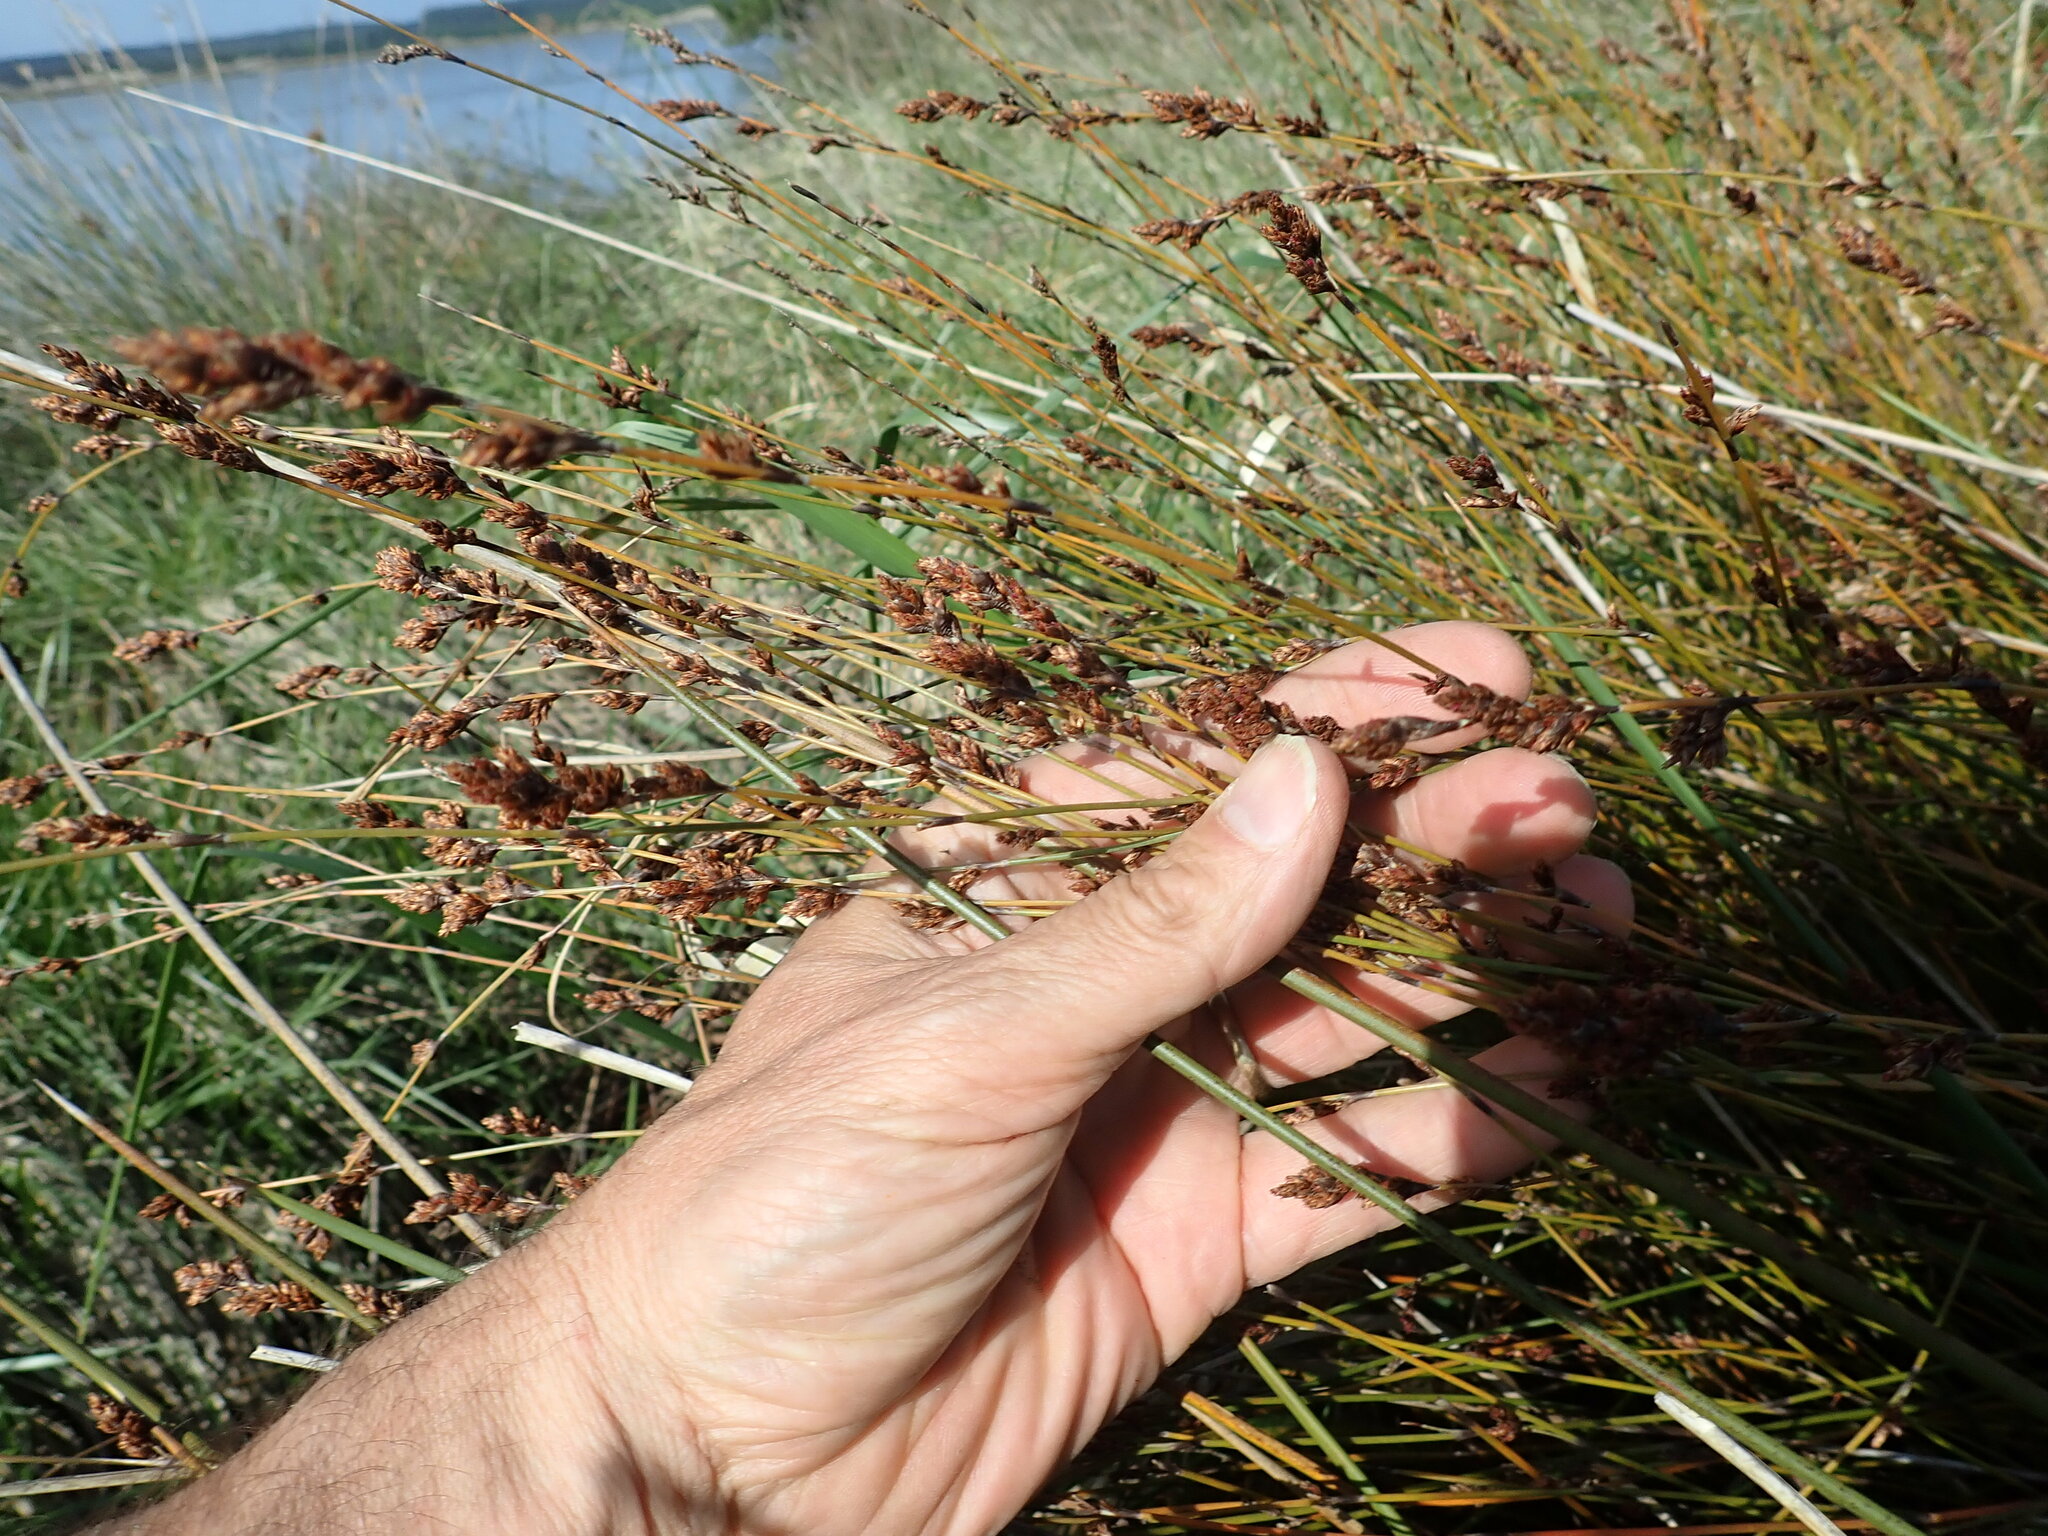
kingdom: Plantae
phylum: Tracheophyta
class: Liliopsida
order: Poales
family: Restionaceae
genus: Apodasmia
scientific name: Apodasmia similis
